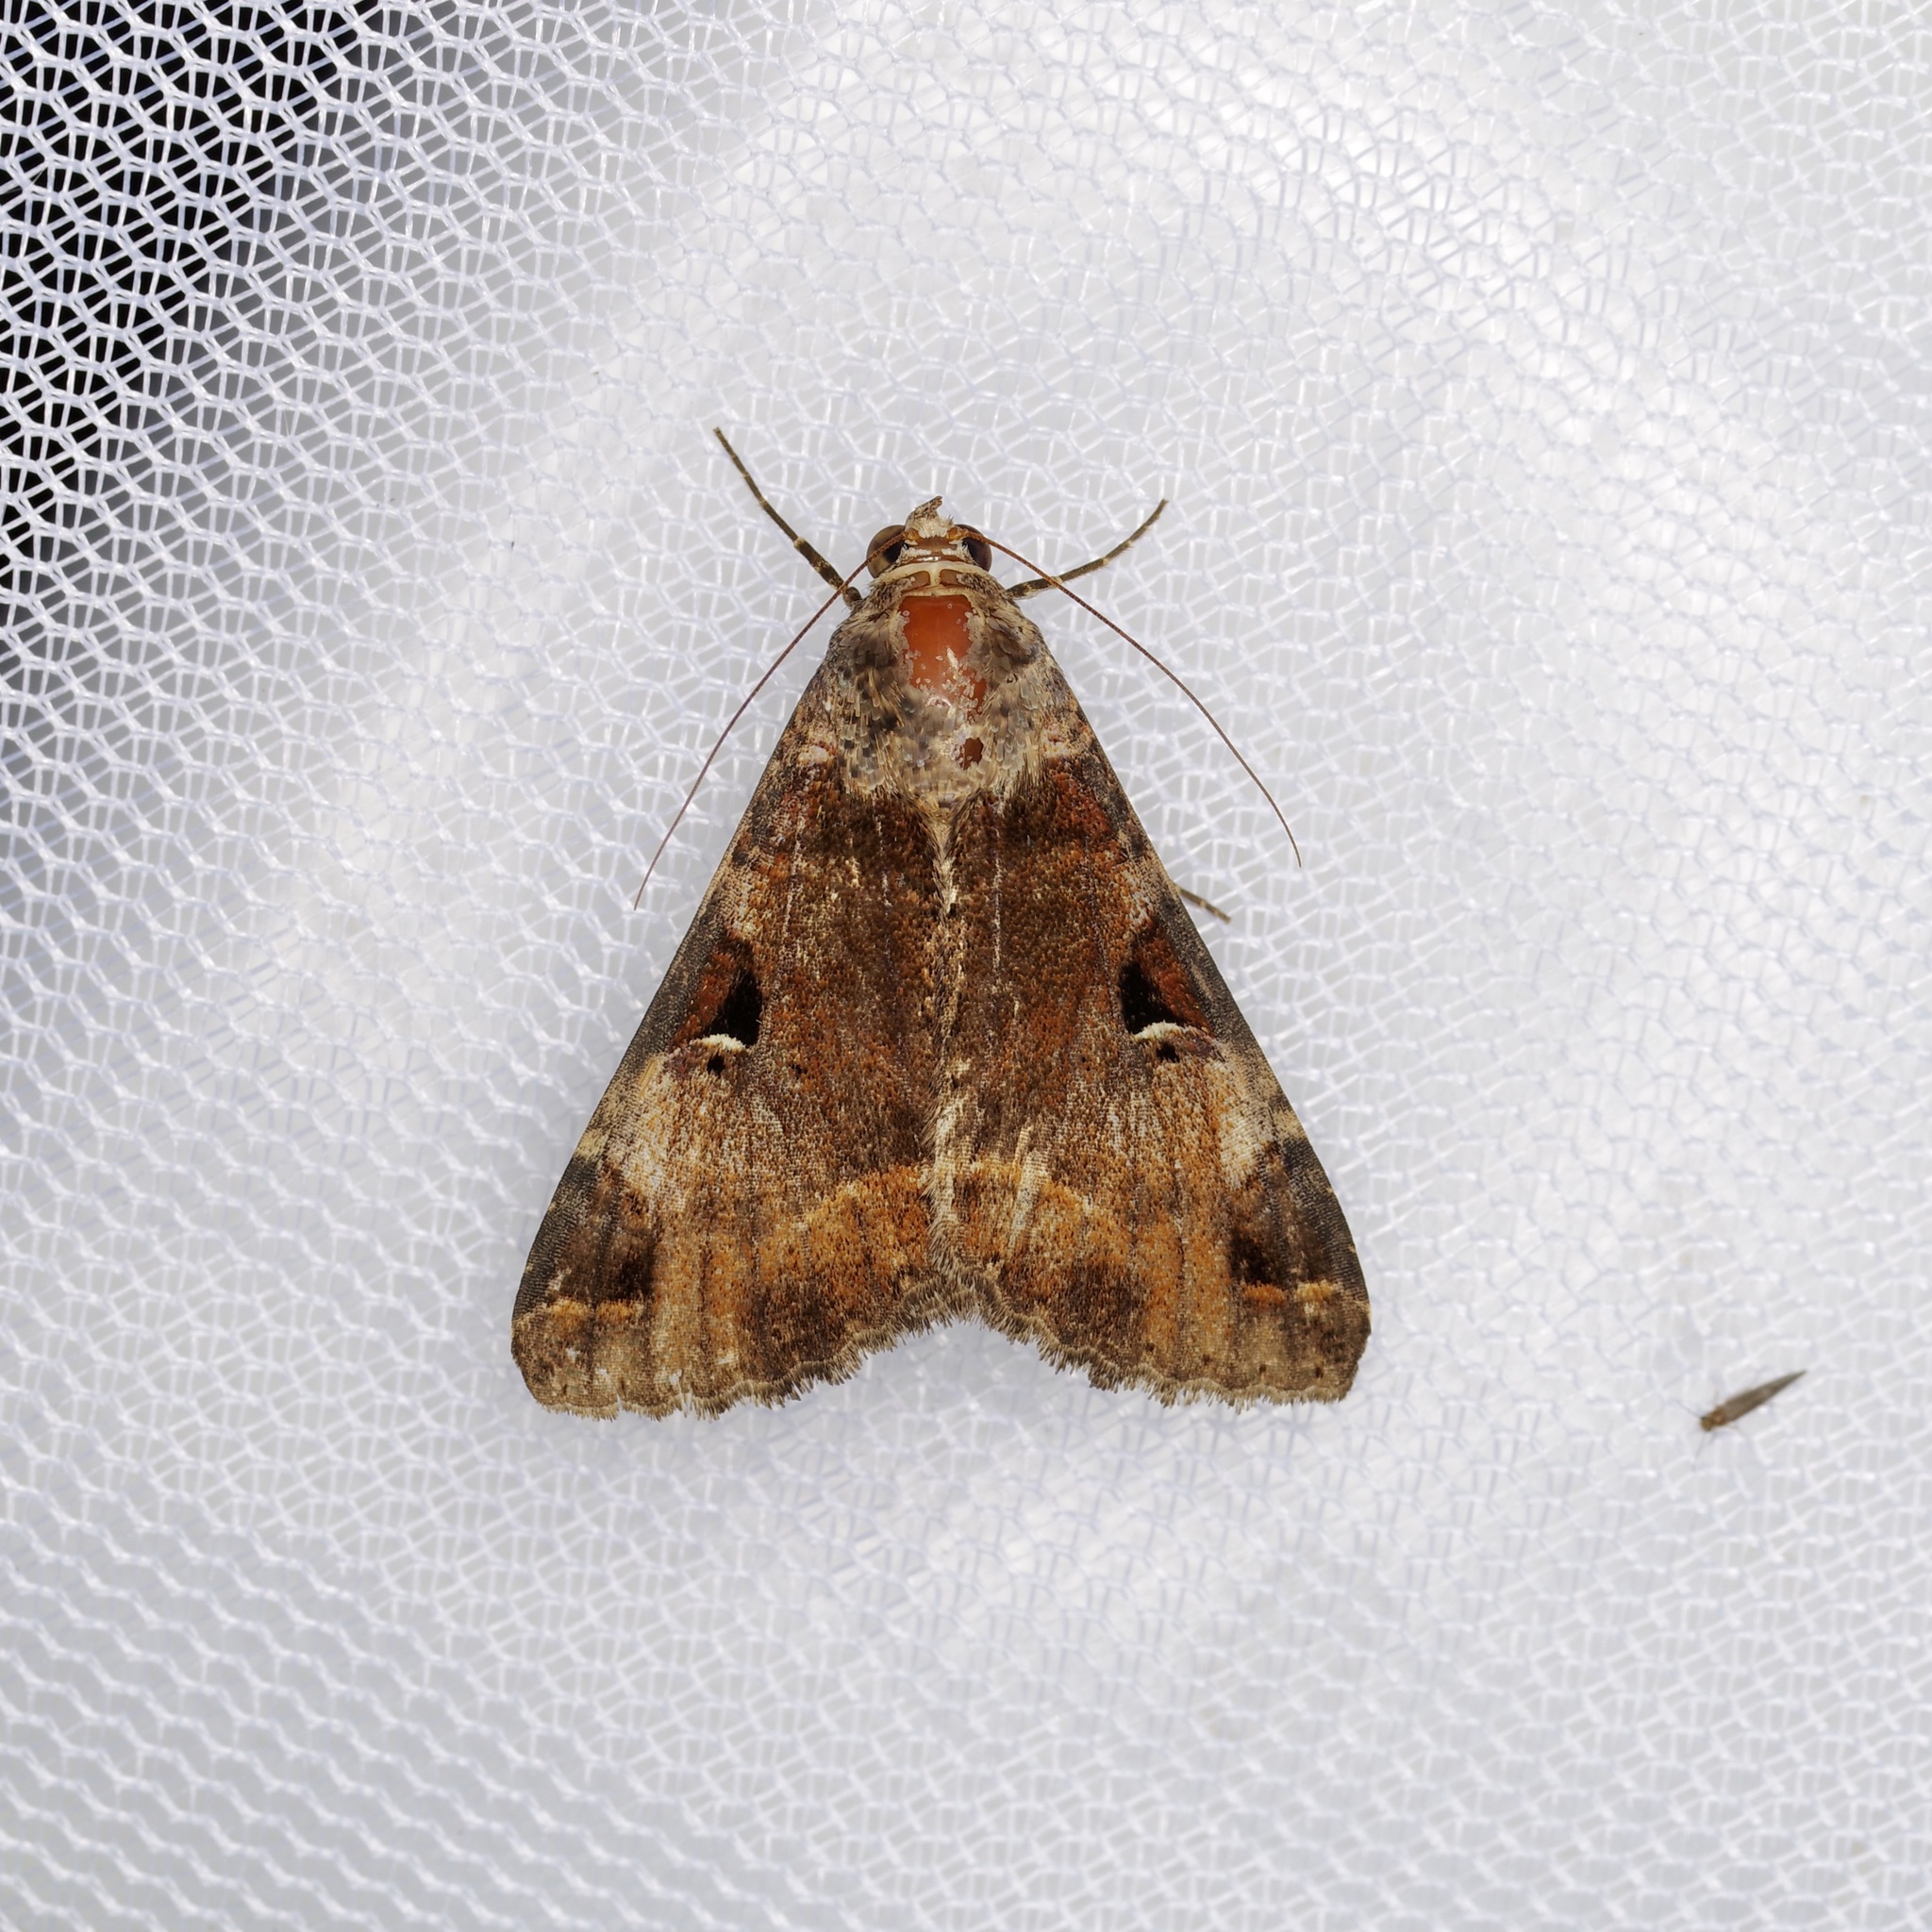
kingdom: Animalia
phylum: Arthropoda
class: Insecta
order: Lepidoptera
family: Erebidae
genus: Melipotis
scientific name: Melipotis perpendicularis
